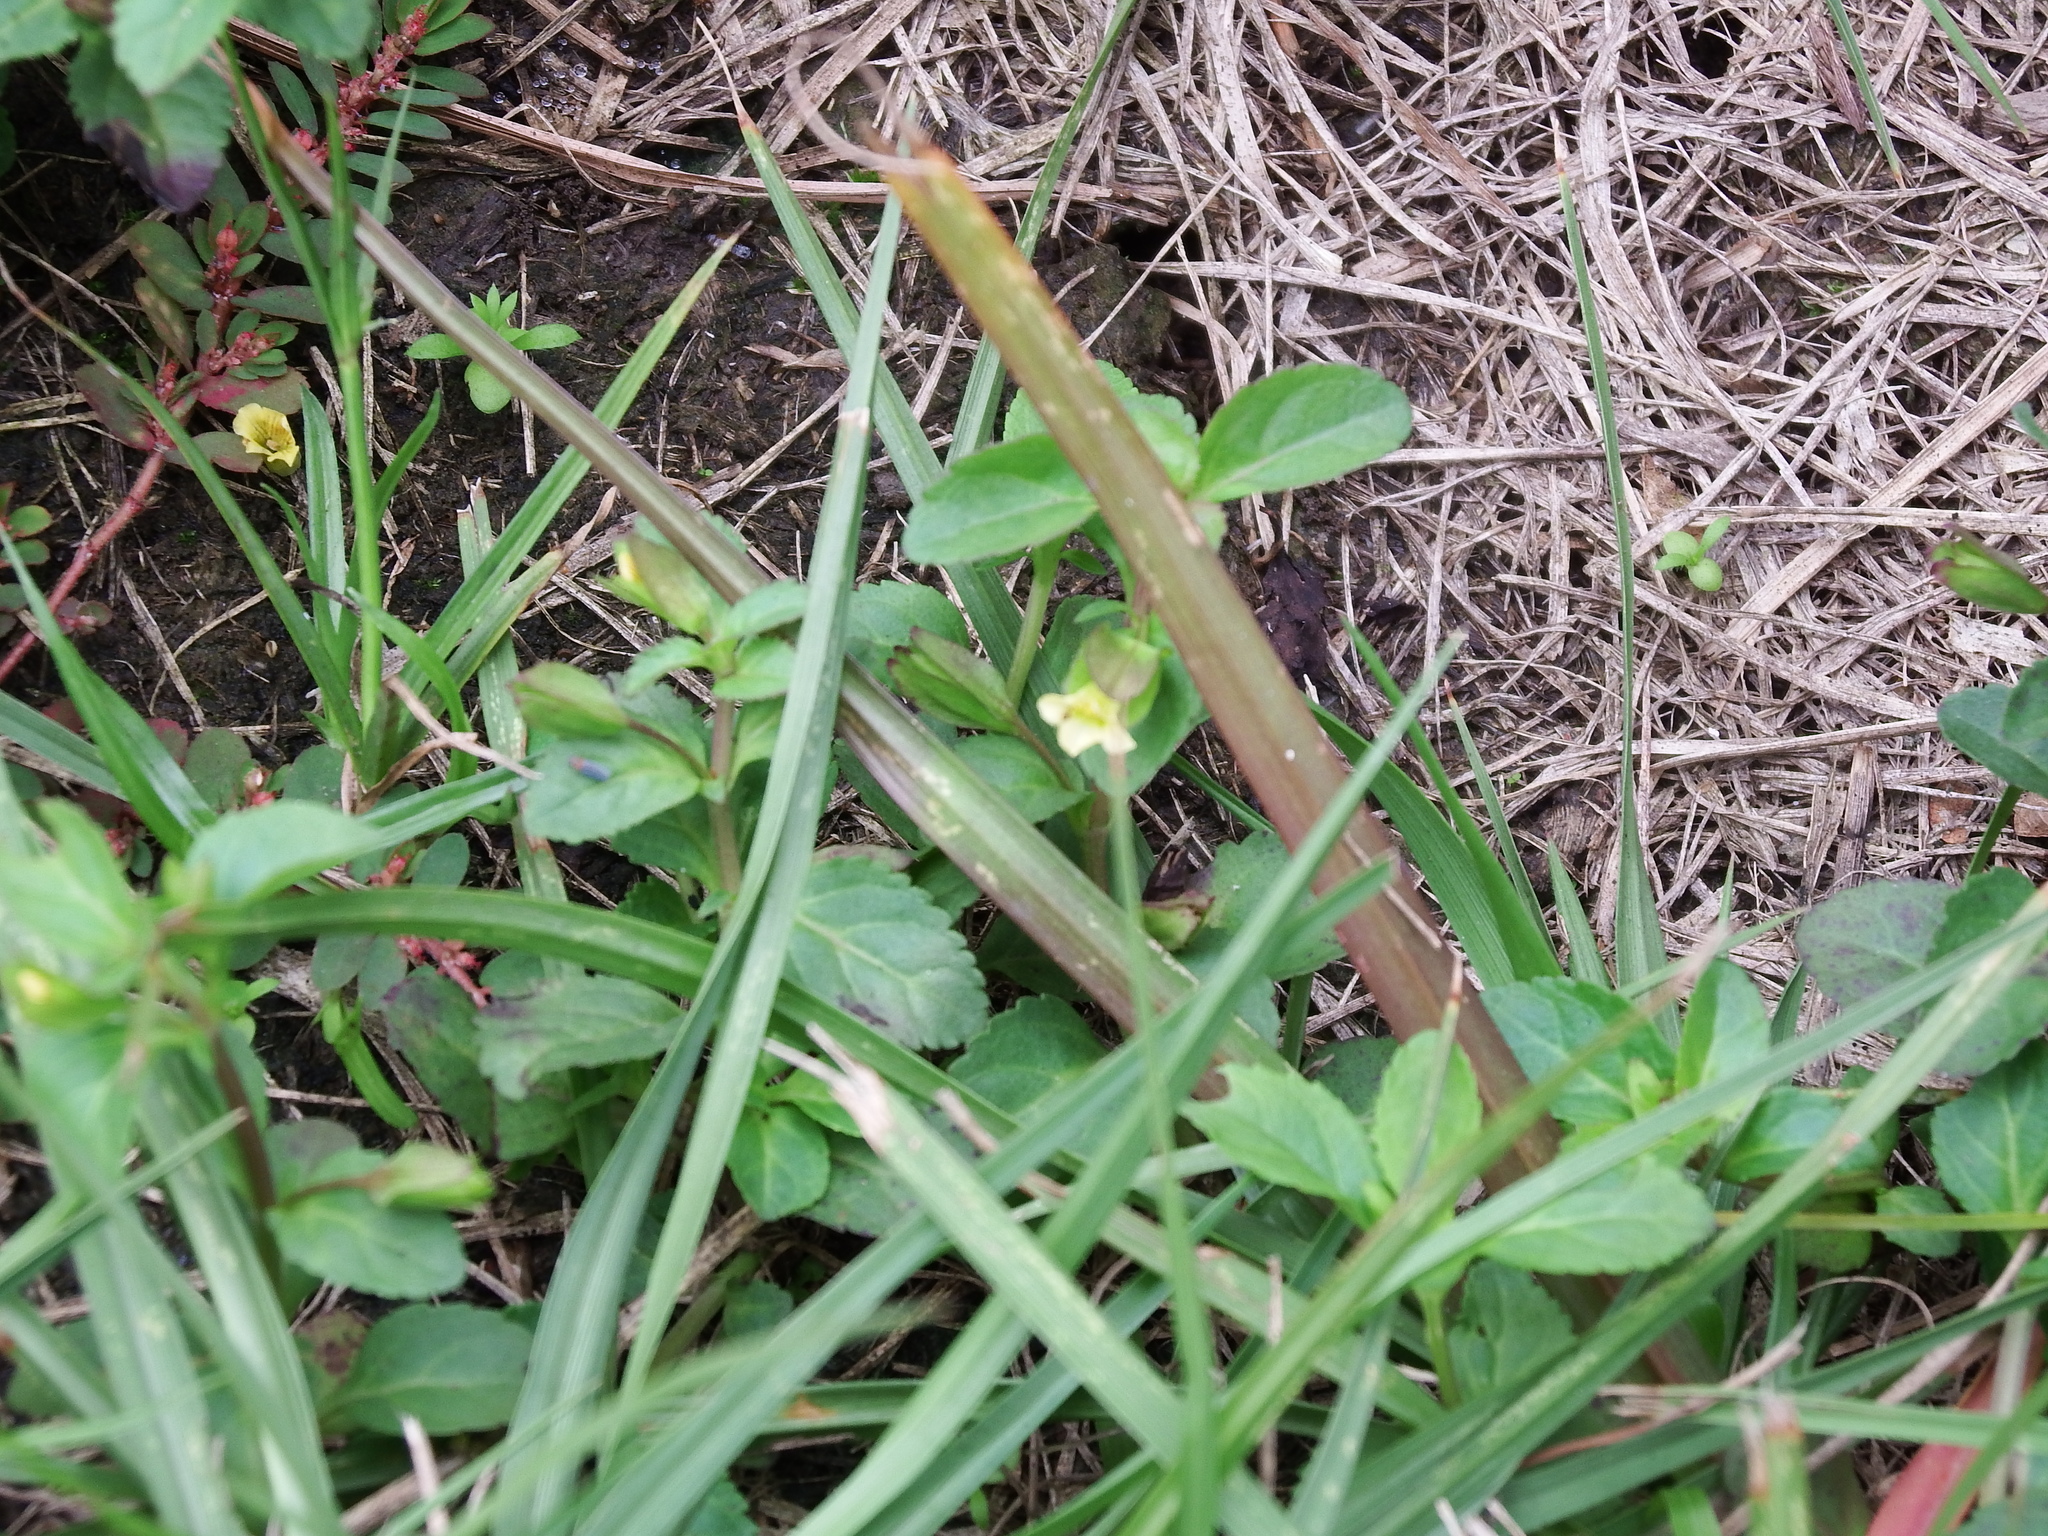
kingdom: Plantae
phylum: Tracheophyta
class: Magnoliopsida
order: Lamiales
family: Plantaginaceae
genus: Mecardonia
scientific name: Mecardonia procumbens
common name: Baby jump-up
